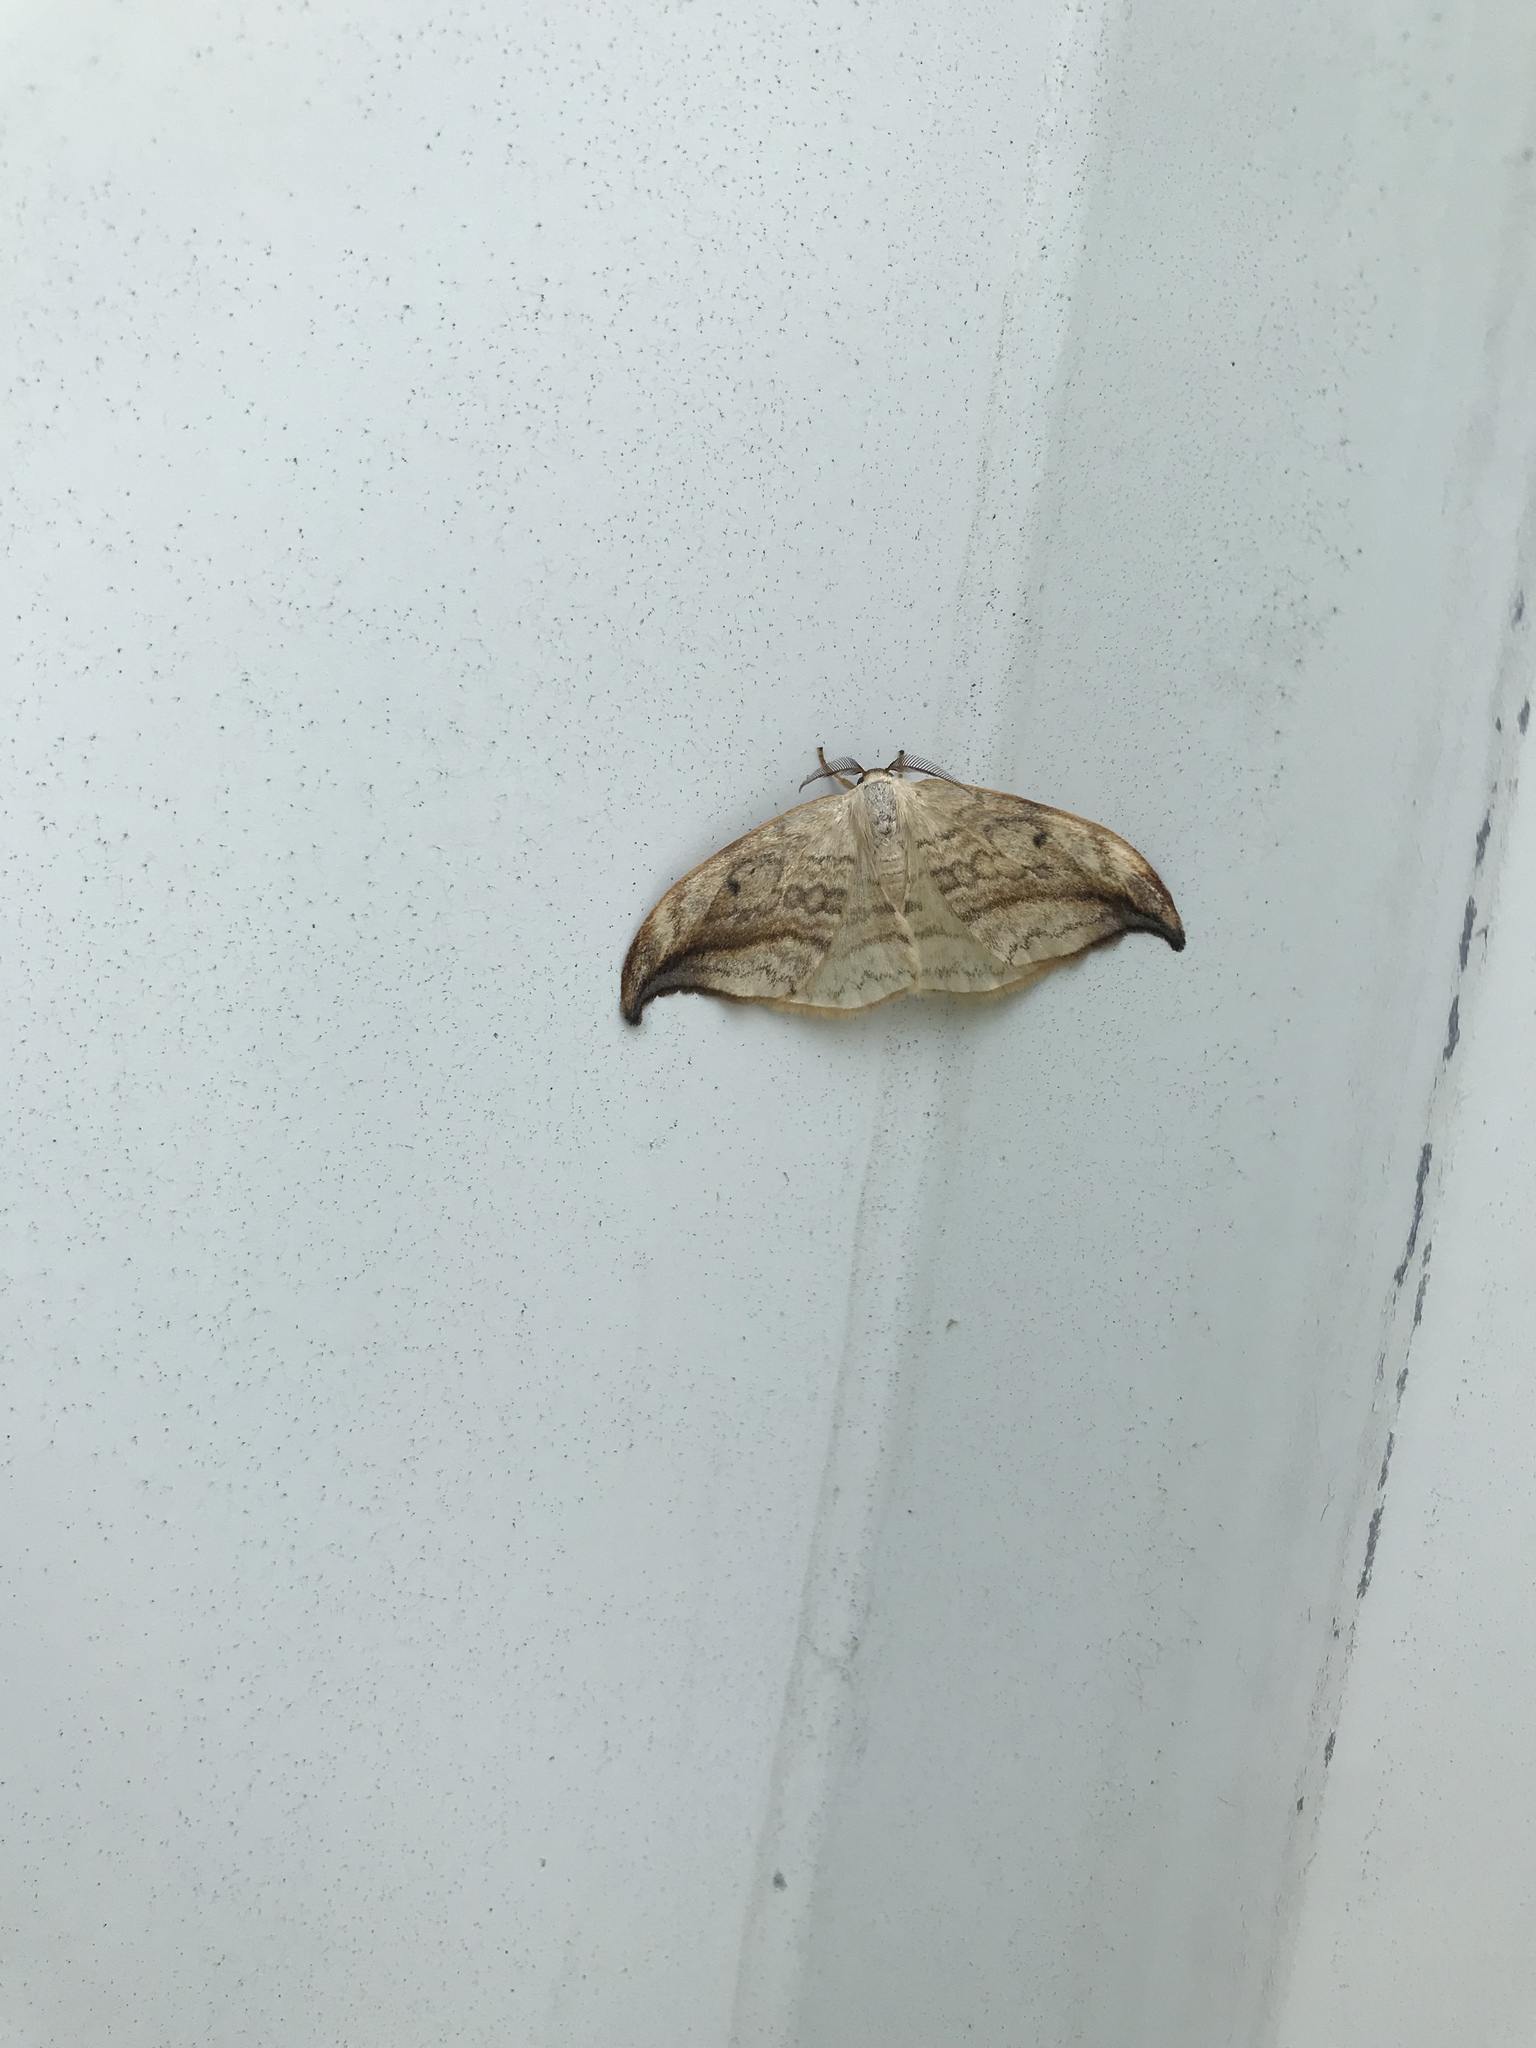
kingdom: Animalia
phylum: Arthropoda
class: Insecta
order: Lepidoptera
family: Drepanidae
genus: Drepana
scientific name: Drepana arcuata
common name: Arched hooktip moth
